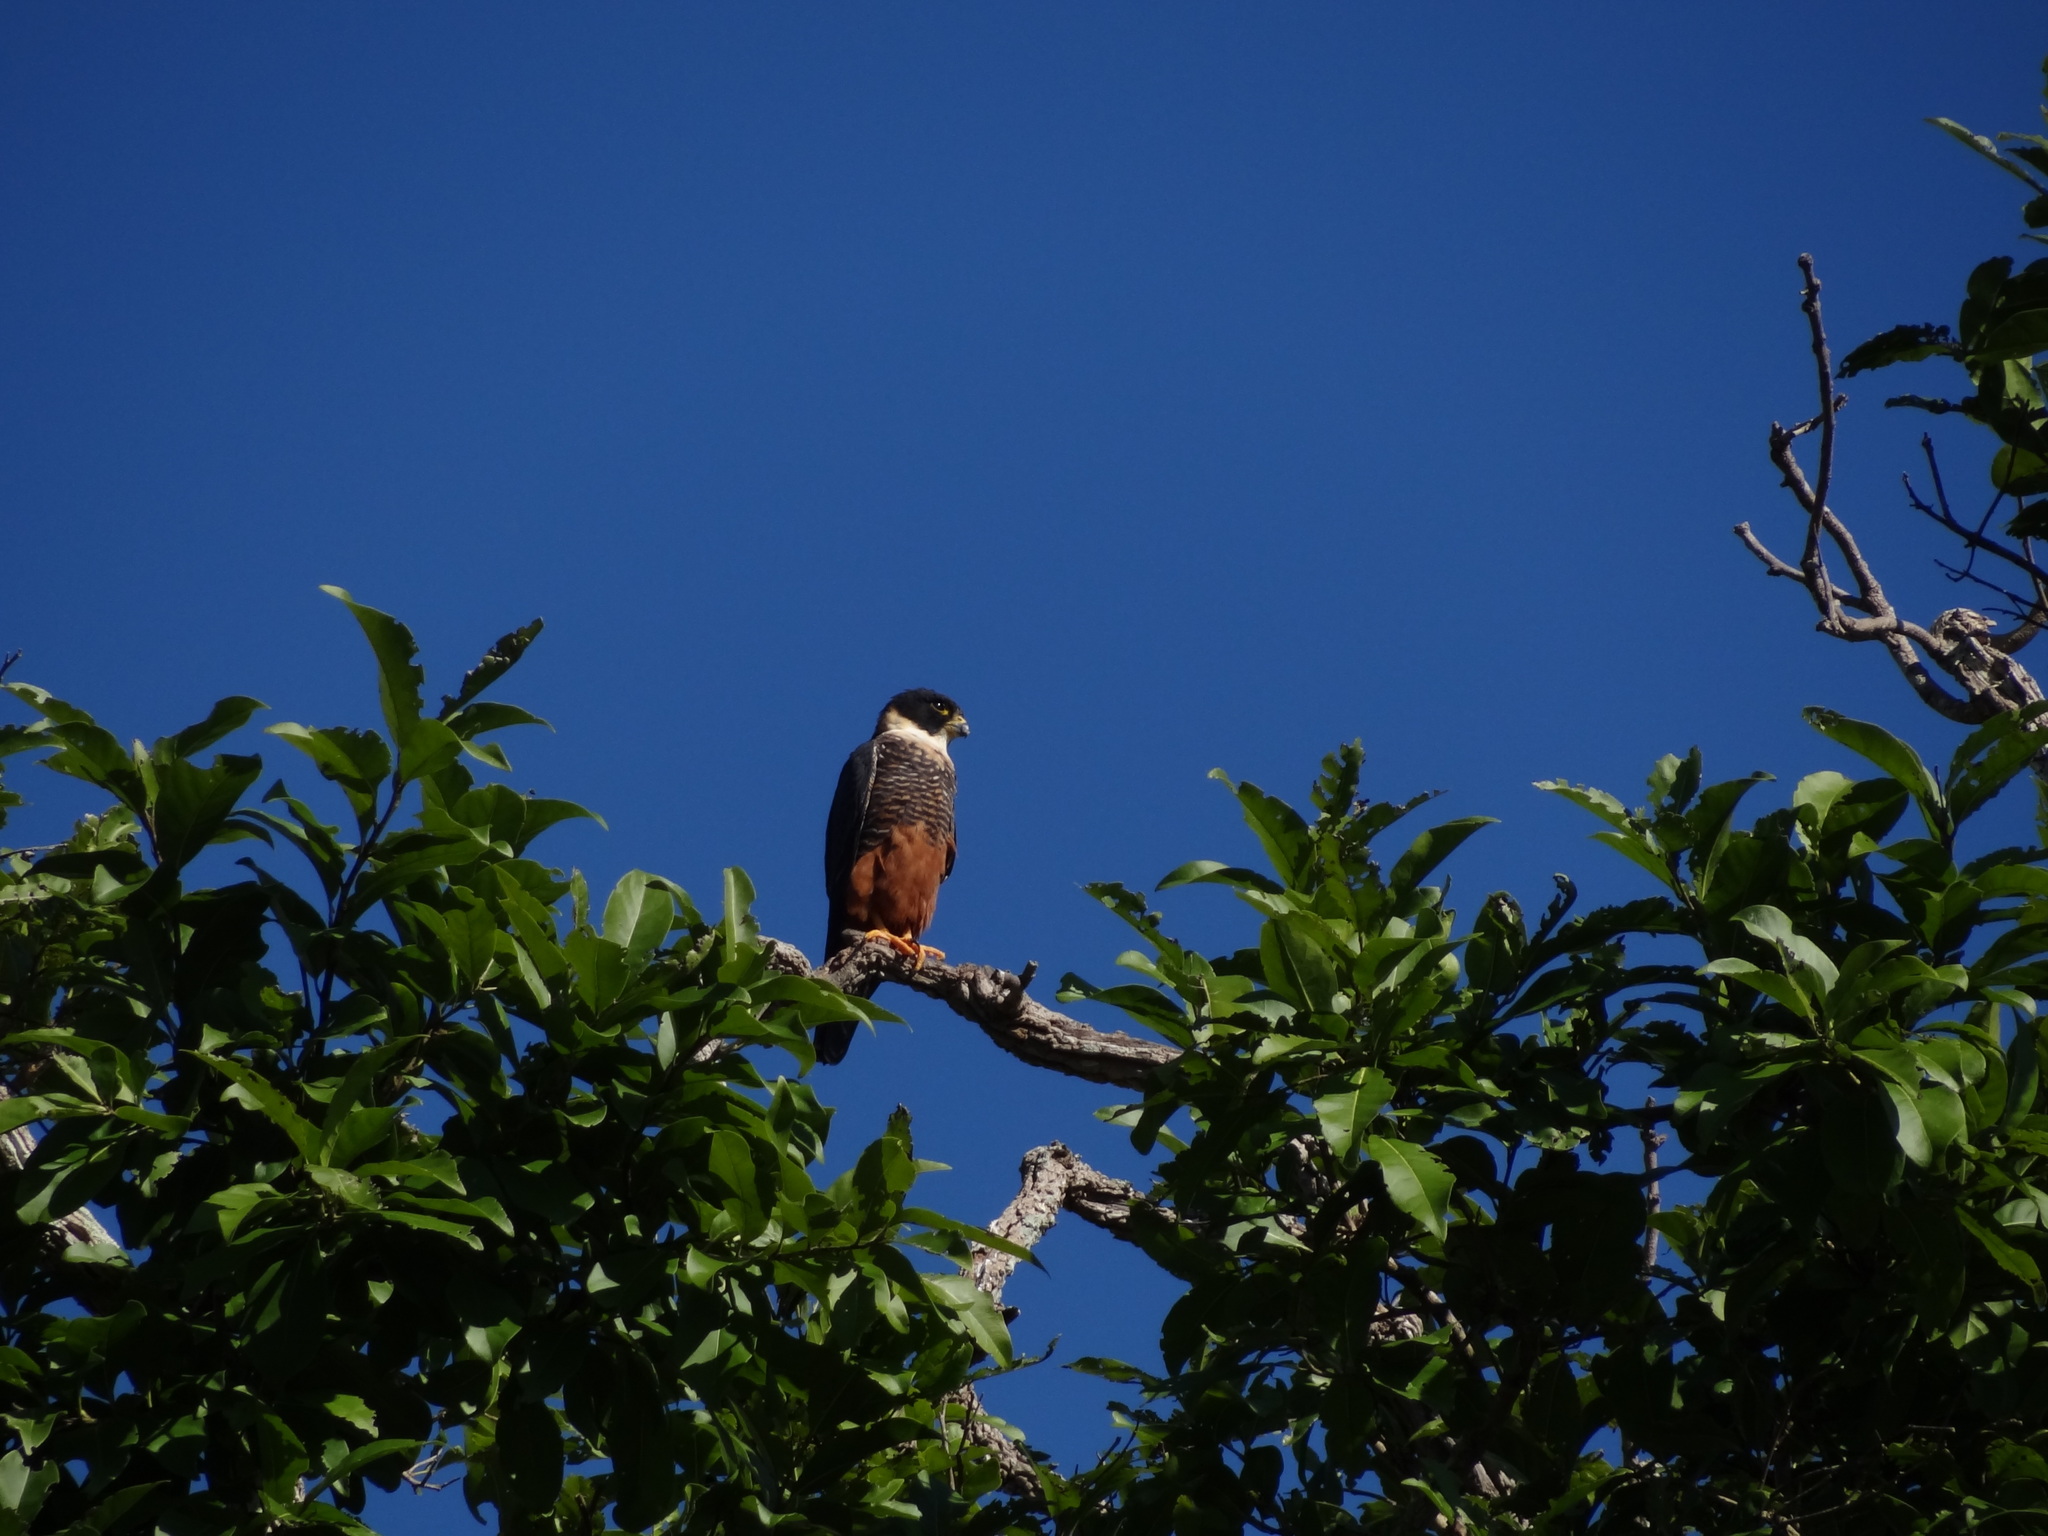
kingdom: Animalia
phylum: Chordata
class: Aves
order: Falconiformes
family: Falconidae
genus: Falco
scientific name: Falco rufigularis
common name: Bat falcon
